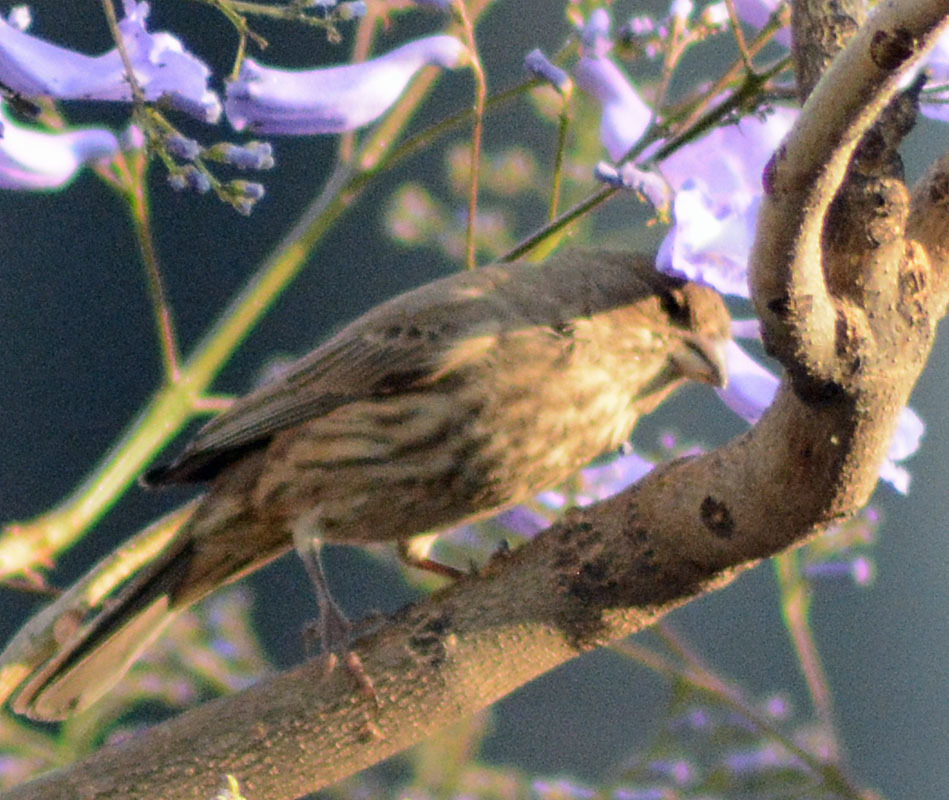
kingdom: Animalia
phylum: Chordata
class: Aves
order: Passeriformes
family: Fringillidae
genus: Haemorhous
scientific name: Haemorhous mexicanus
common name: House finch
